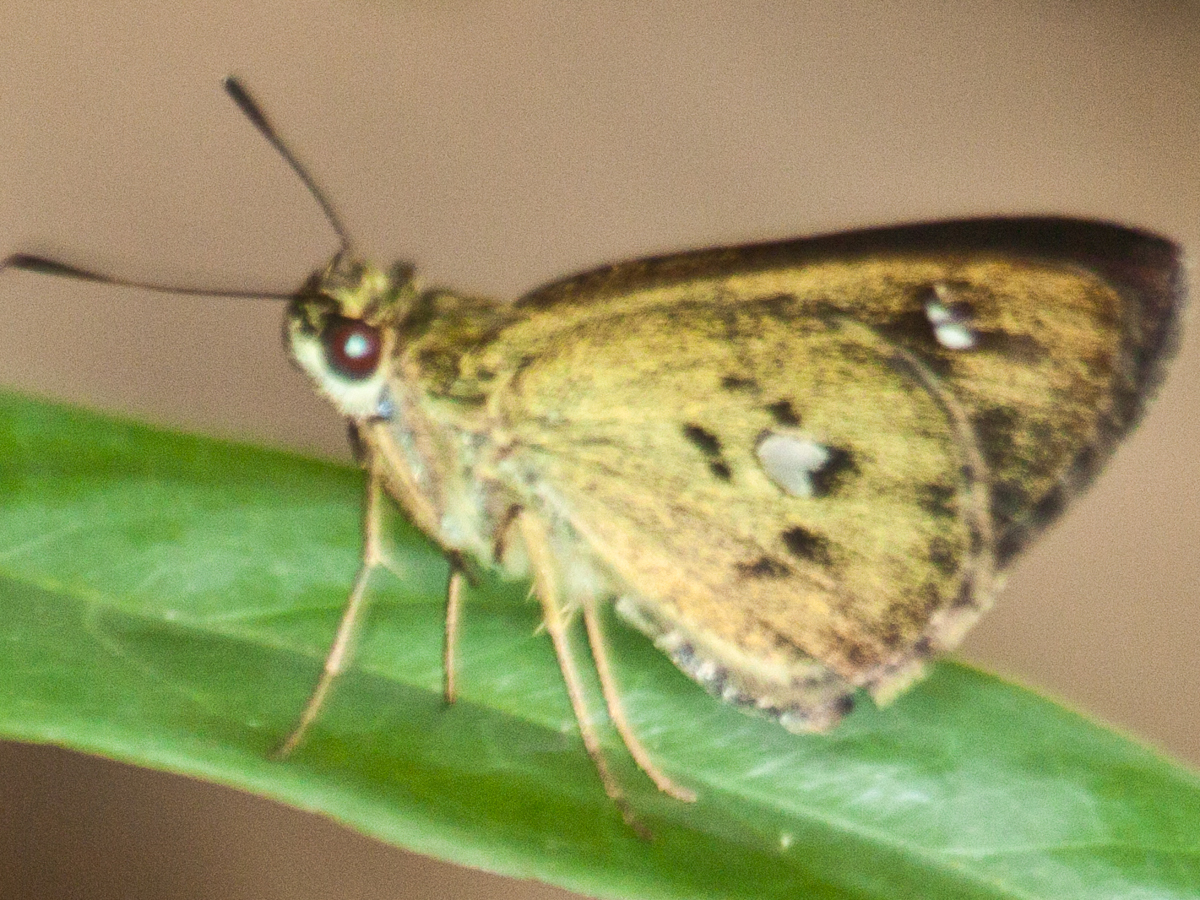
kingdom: Animalia
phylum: Arthropoda
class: Insecta
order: Lepidoptera
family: Hesperiidae
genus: Scobura
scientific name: Scobura phiditia
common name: Malay forest bob
